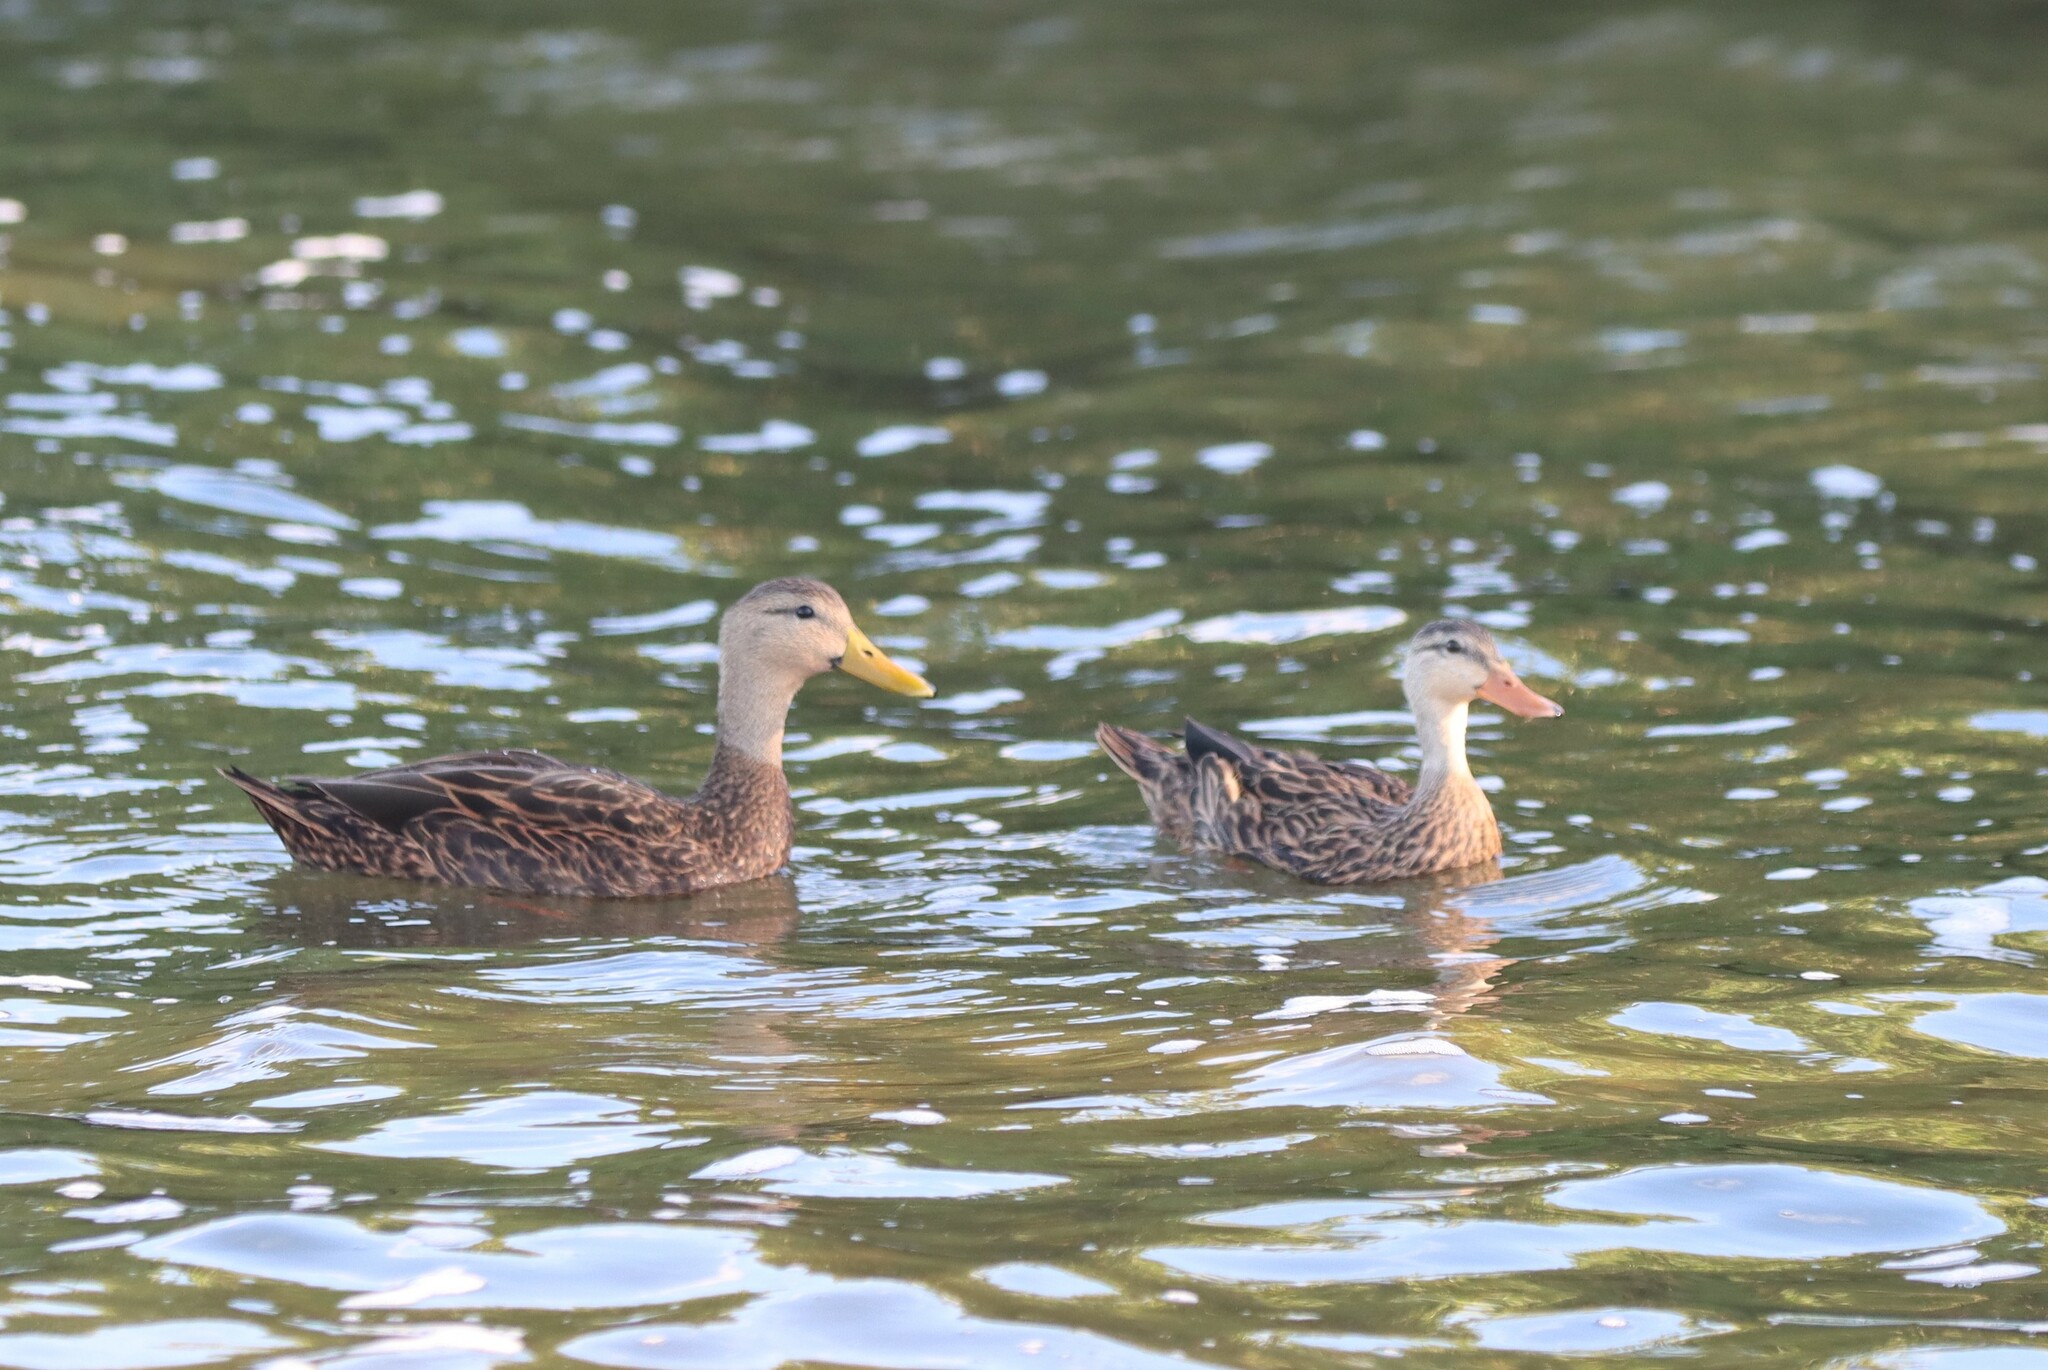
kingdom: Animalia
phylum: Chordata
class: Aves
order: Anseriformes
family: Anatidae
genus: Anas
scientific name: Anas fulvigula
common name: Mottled duck
